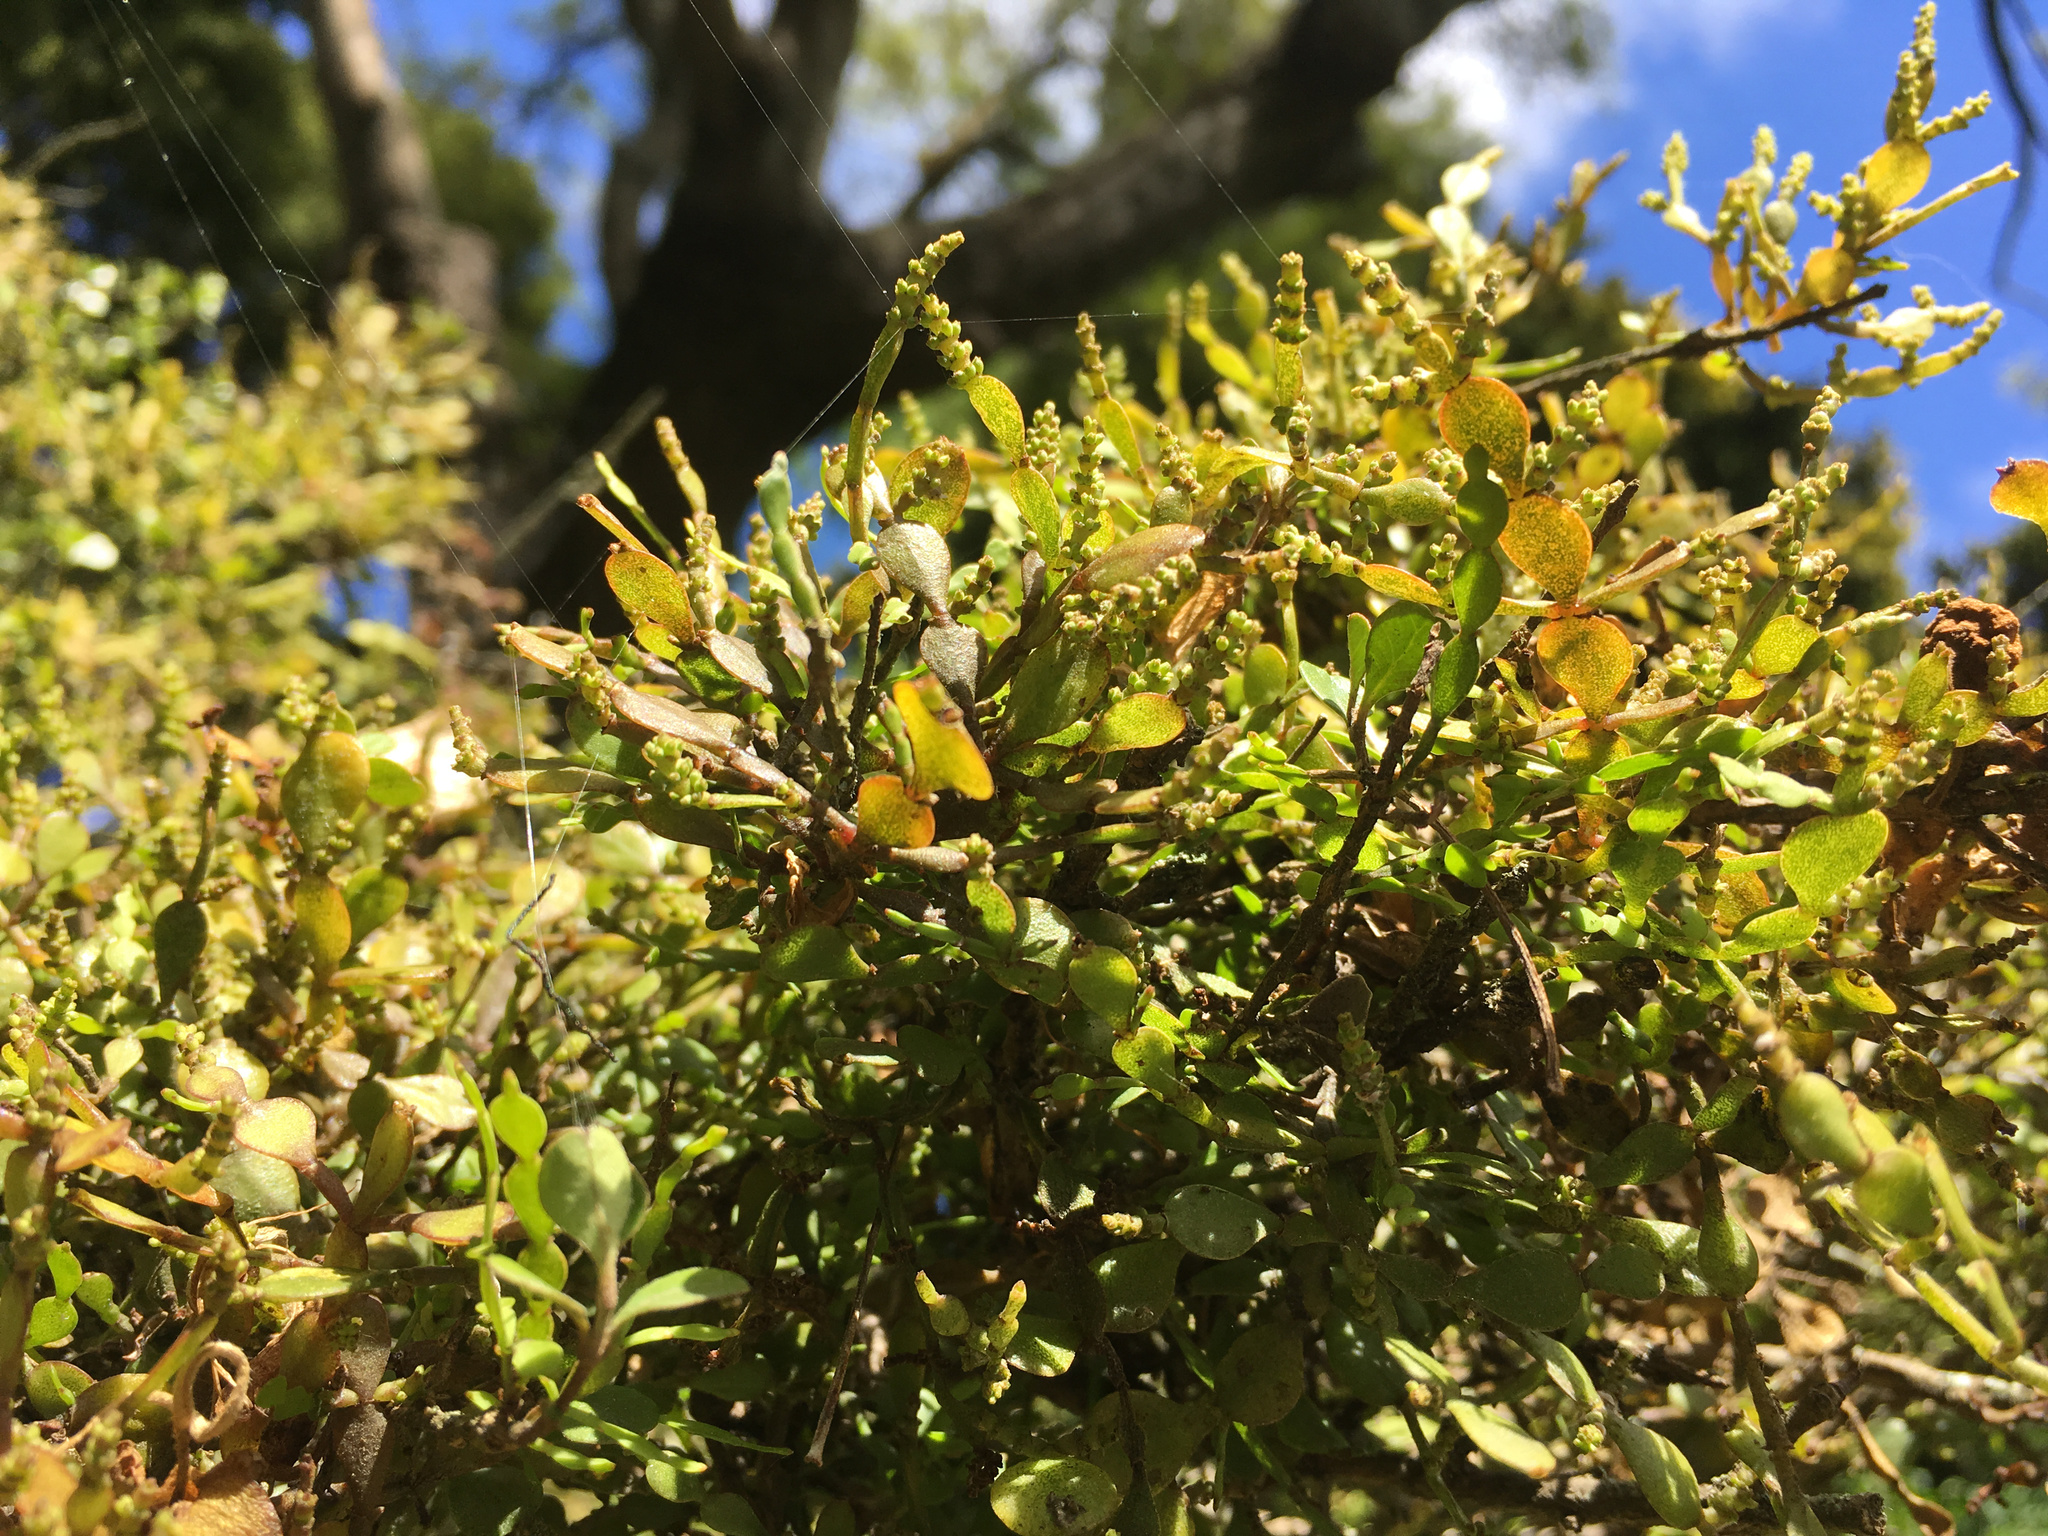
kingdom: Plantae
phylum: Tracheophyta
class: Magnoliopsida
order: Santalales
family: Viscaceae
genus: Korthalsella
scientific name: Korthalsella lindsayi
